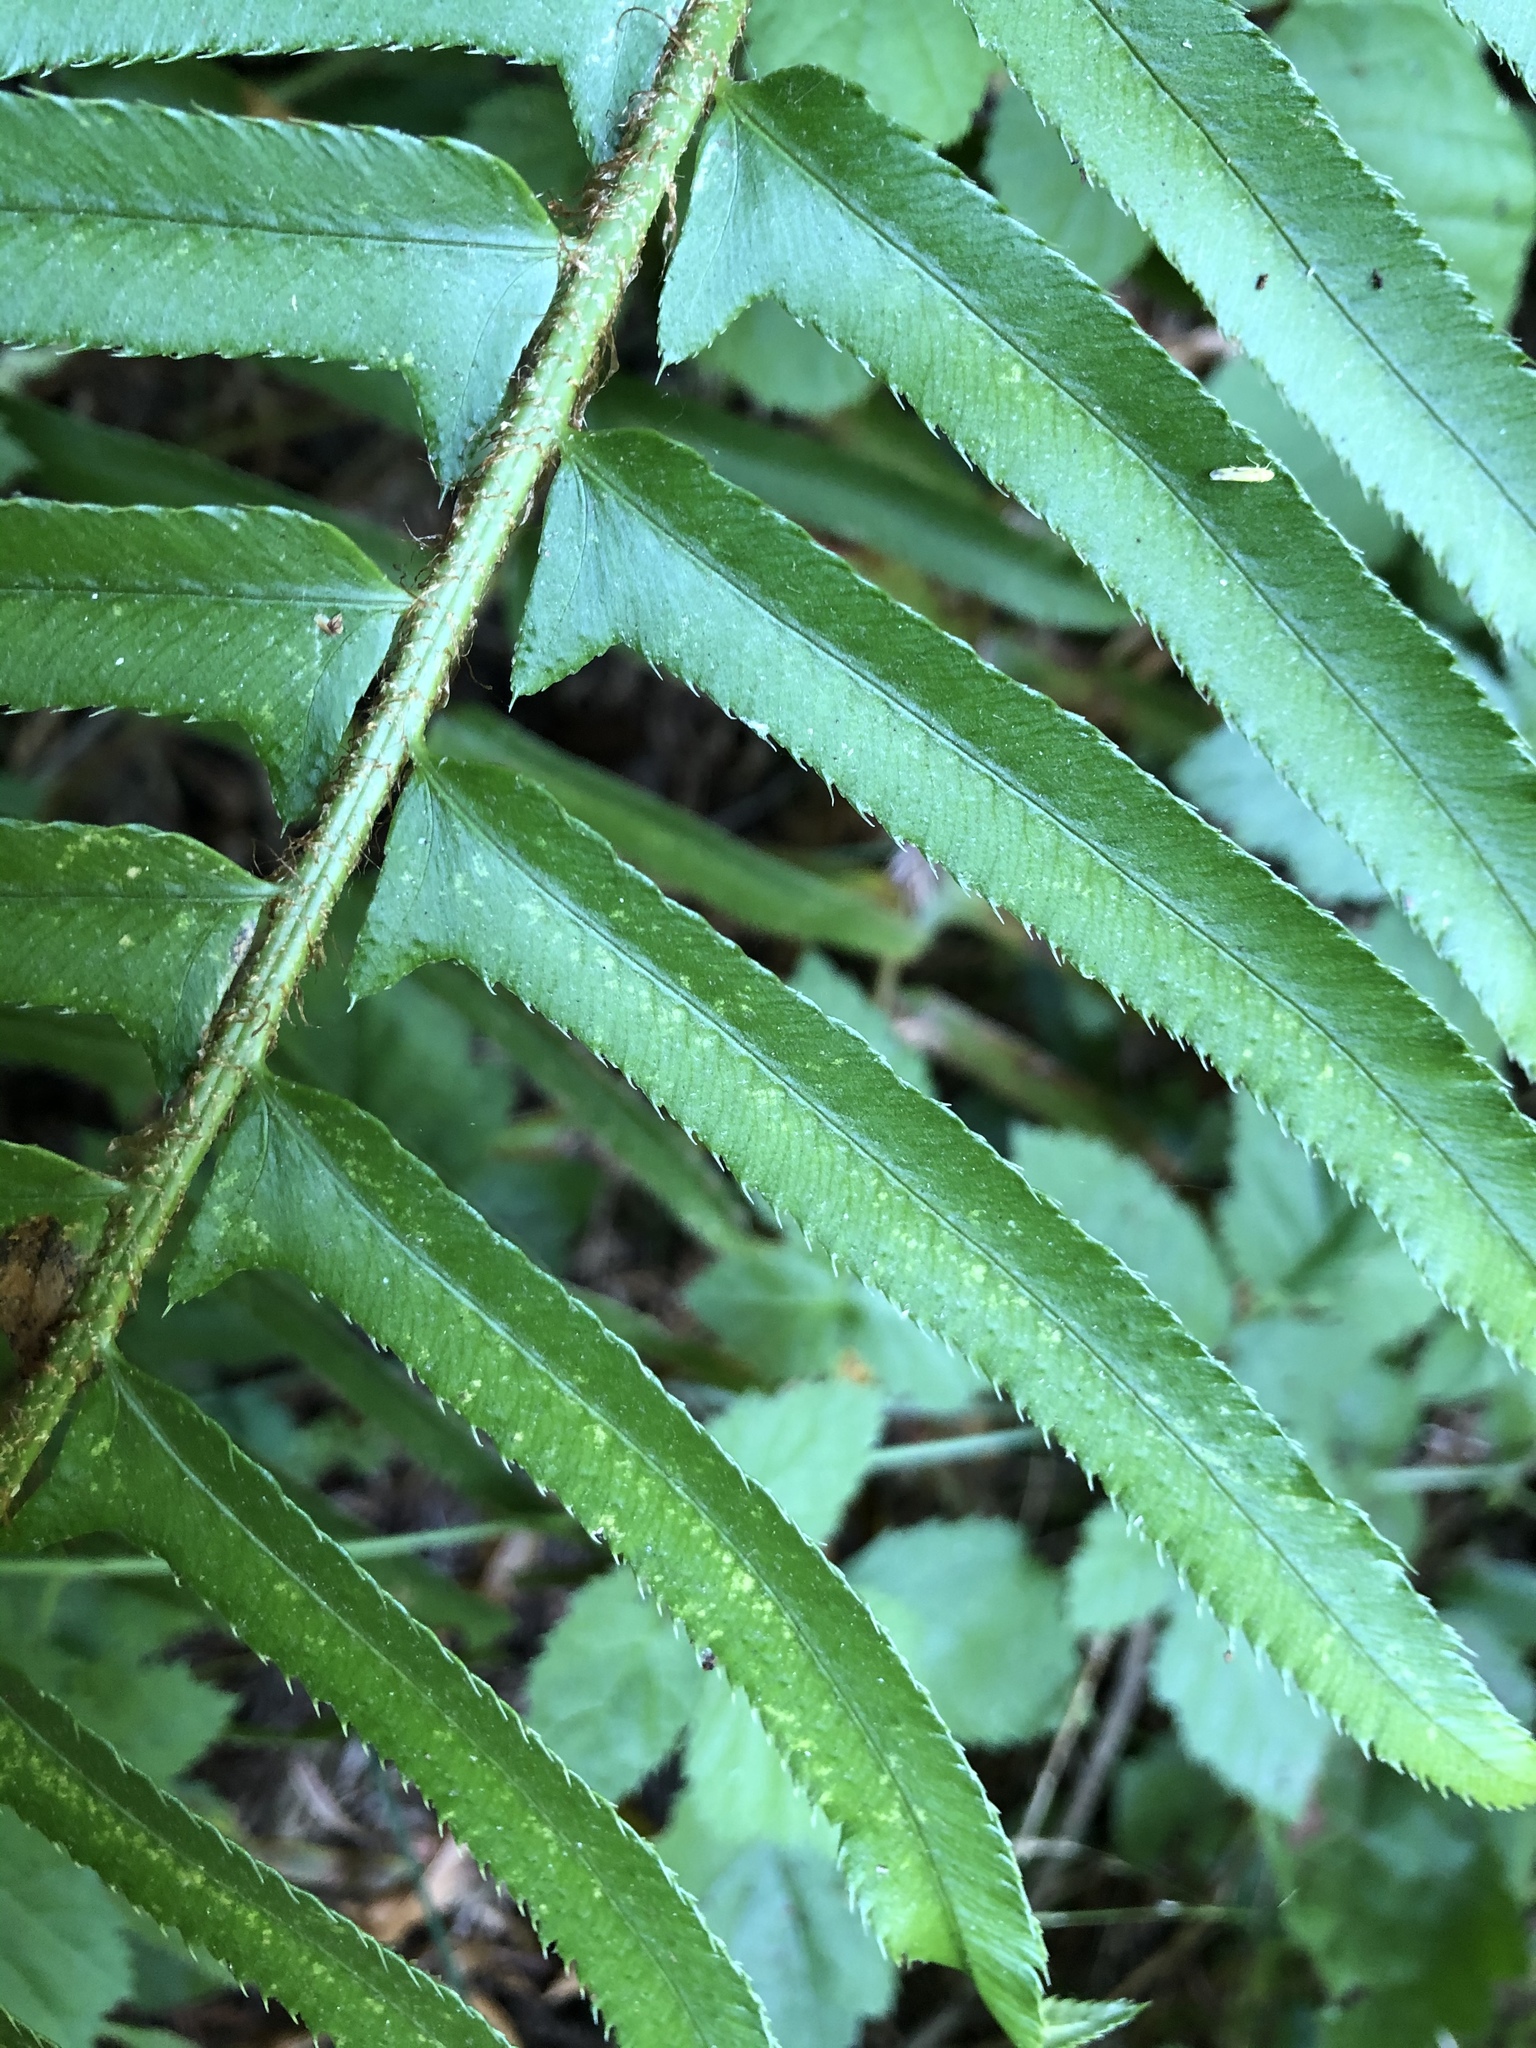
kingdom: Plantae
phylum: Tracheophyta
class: Polypodiopsida
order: Polypodiales
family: Dryopteridaceae
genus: Polystichum
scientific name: Polystichum munitum
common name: Western sword-fern
